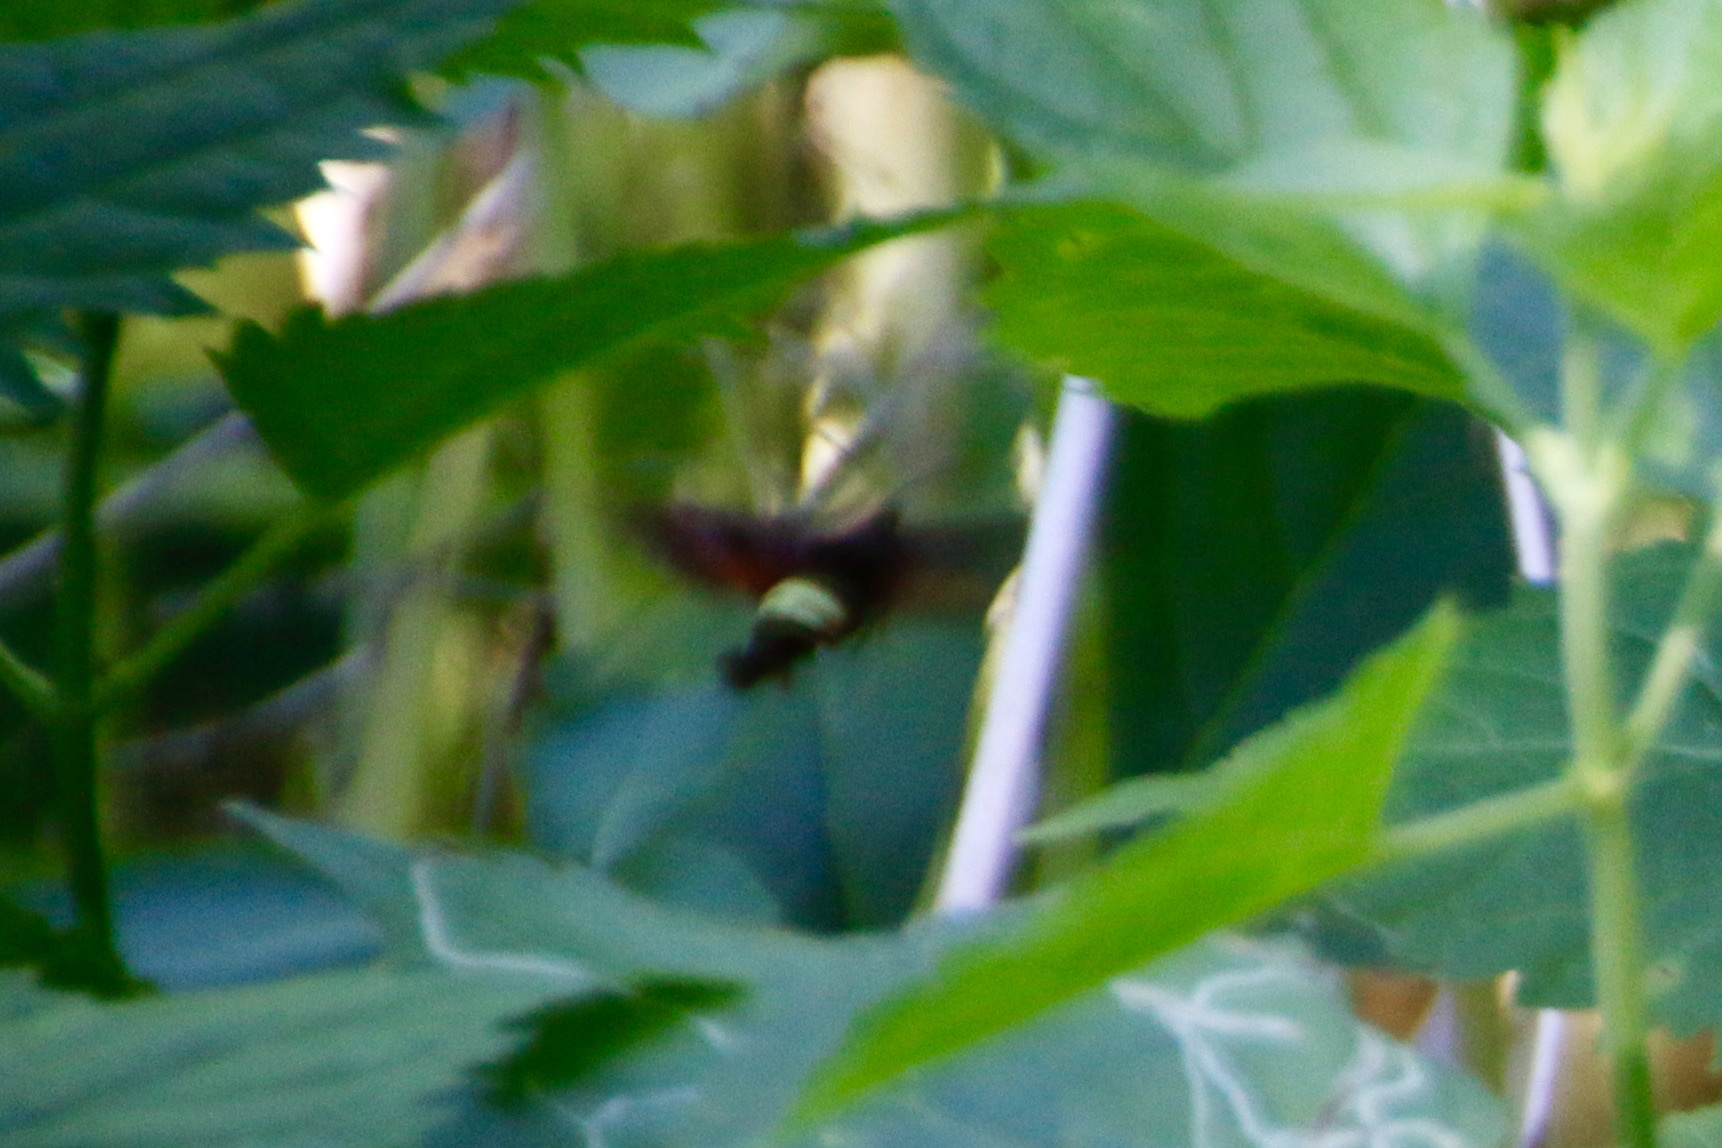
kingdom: Animalia
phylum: Arthropoda
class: Insecta
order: Lepidoptera
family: Sphingidae
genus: Amphion
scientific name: Amphion floridensis
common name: Nessus sphinx
